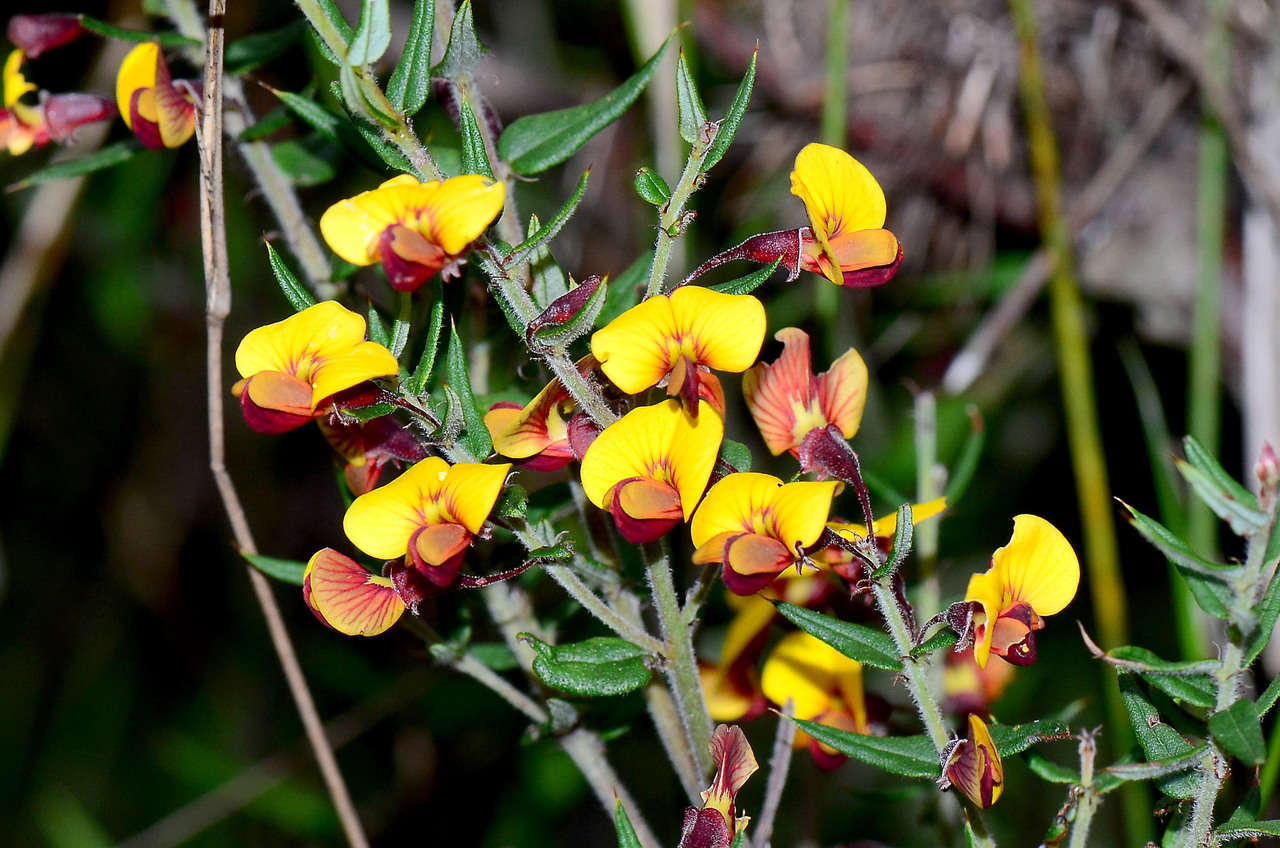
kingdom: Plantae
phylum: Tracheophyta
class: Magnoliopsida
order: Fabales
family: Fabaceae
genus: Bossiaea
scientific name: Bossiaea cinerea
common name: Showy bossiaea
